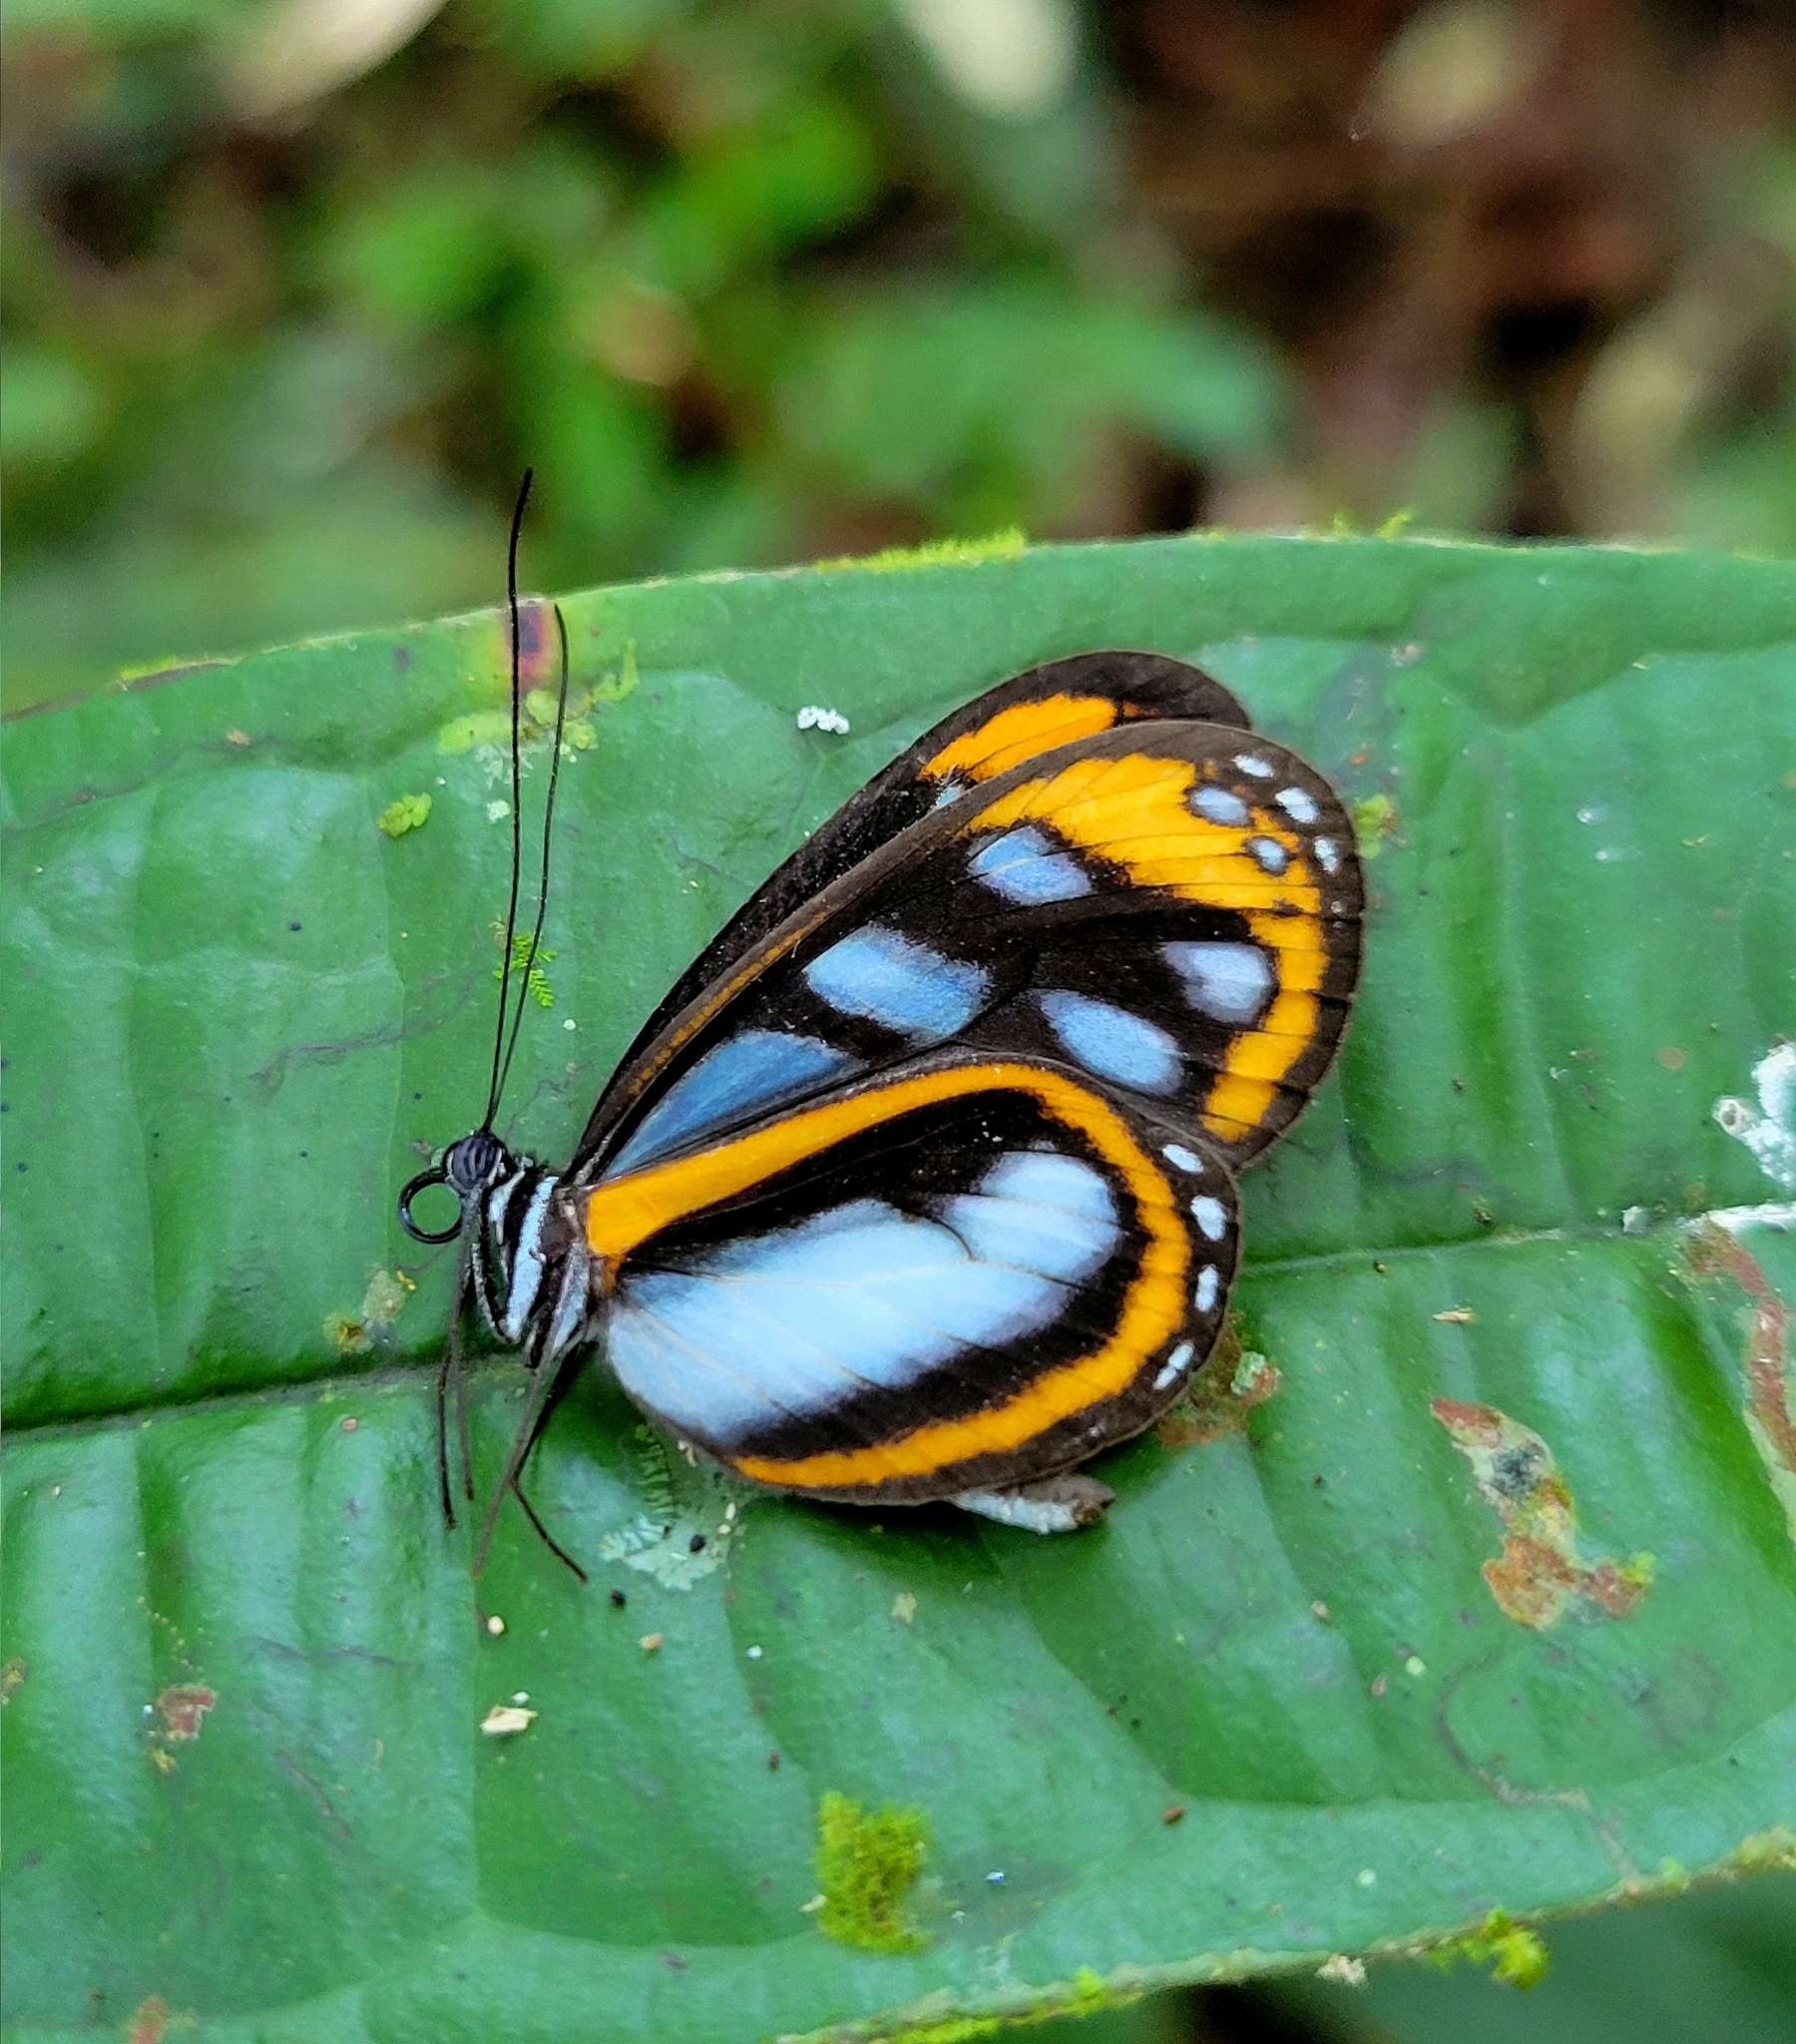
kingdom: Animalia
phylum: Arthropoda
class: Insecta
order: Lepidoptera
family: Nymphalidae
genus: Hyposcada
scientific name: Hyposcada illinissa
